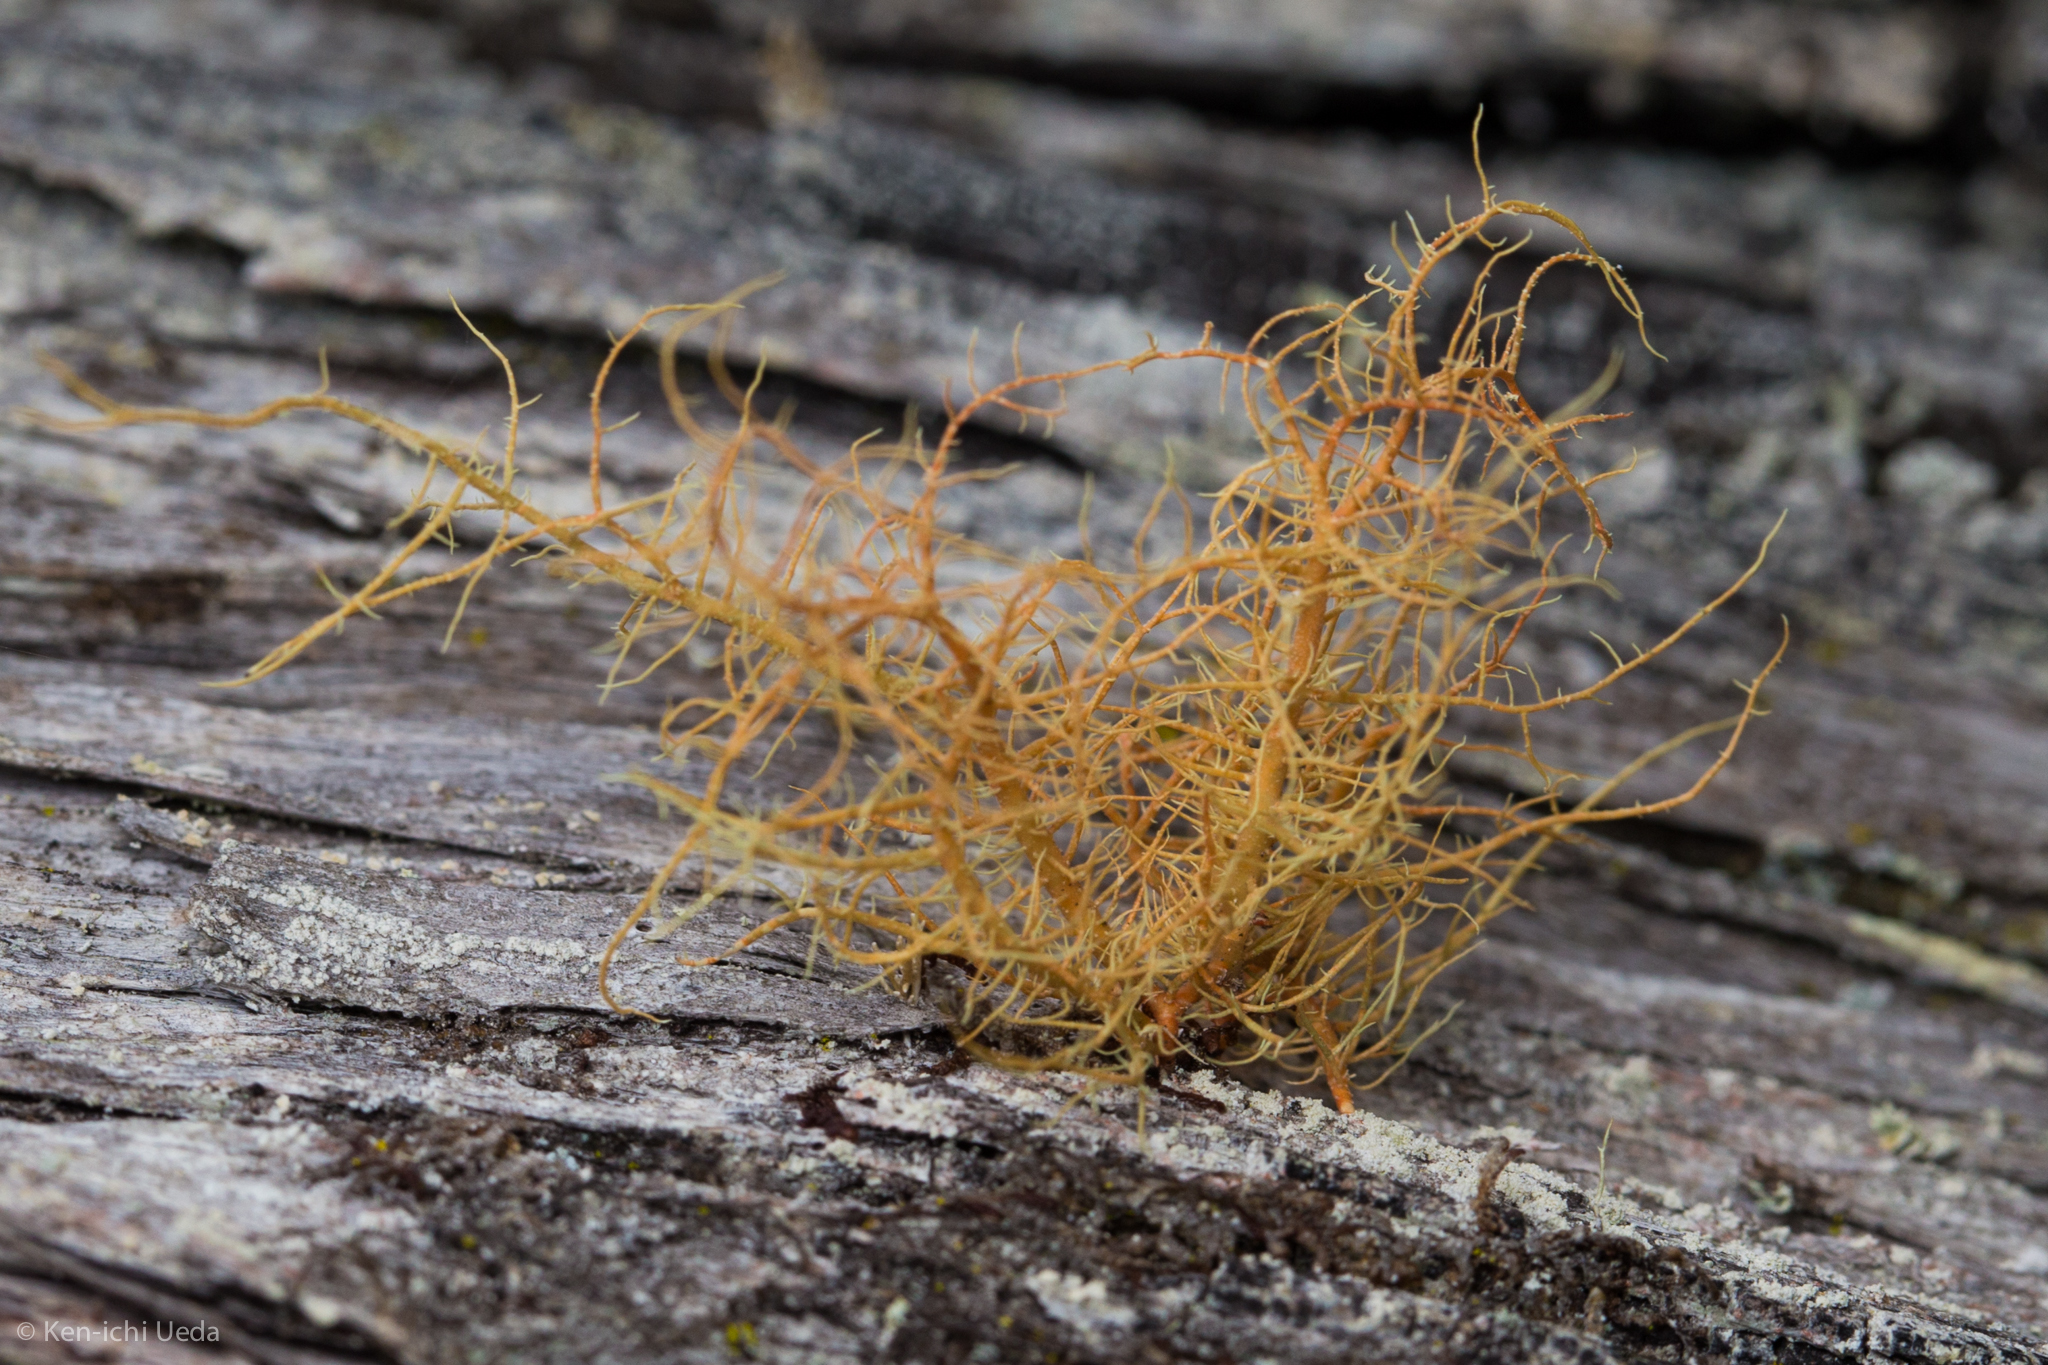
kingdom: Fungi
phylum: Ascomycota
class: Lecanoromycetes
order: Lecanorales
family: Parmeliaceae
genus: Usnea
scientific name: Usnea rubicunda
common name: Red beard lichen
